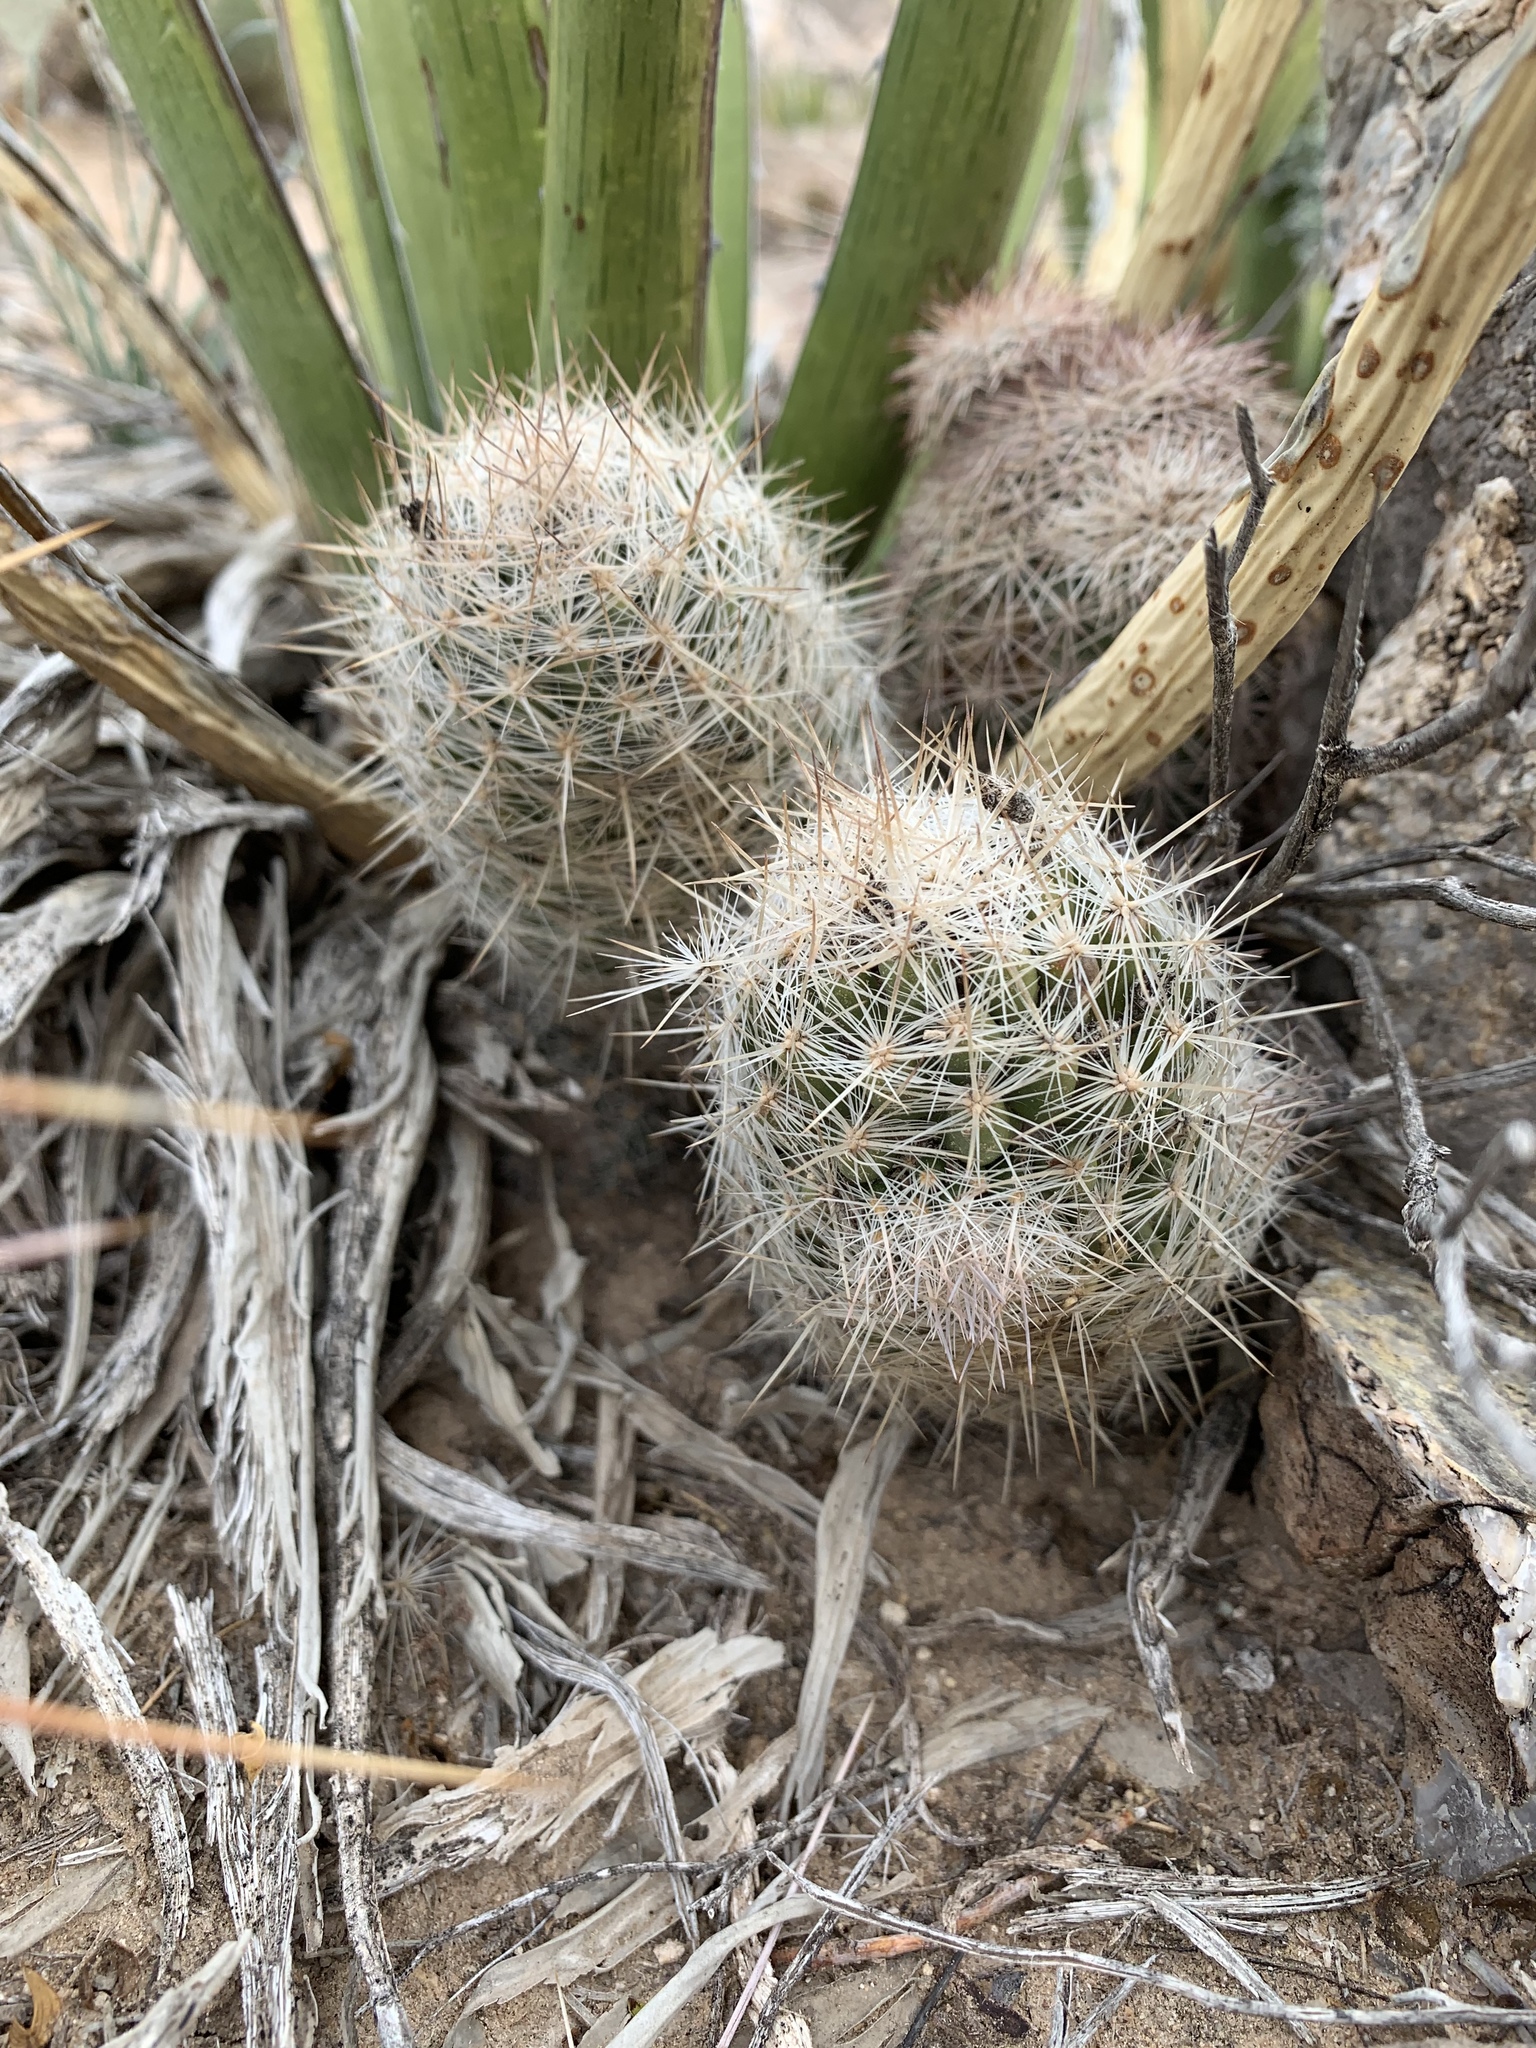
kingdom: Plantae
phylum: Tracheophyta
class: Magnoliopsida
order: Caryophyllales
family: Cactaceae
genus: Pelecyphora
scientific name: Pelecyphora tuberculosa
